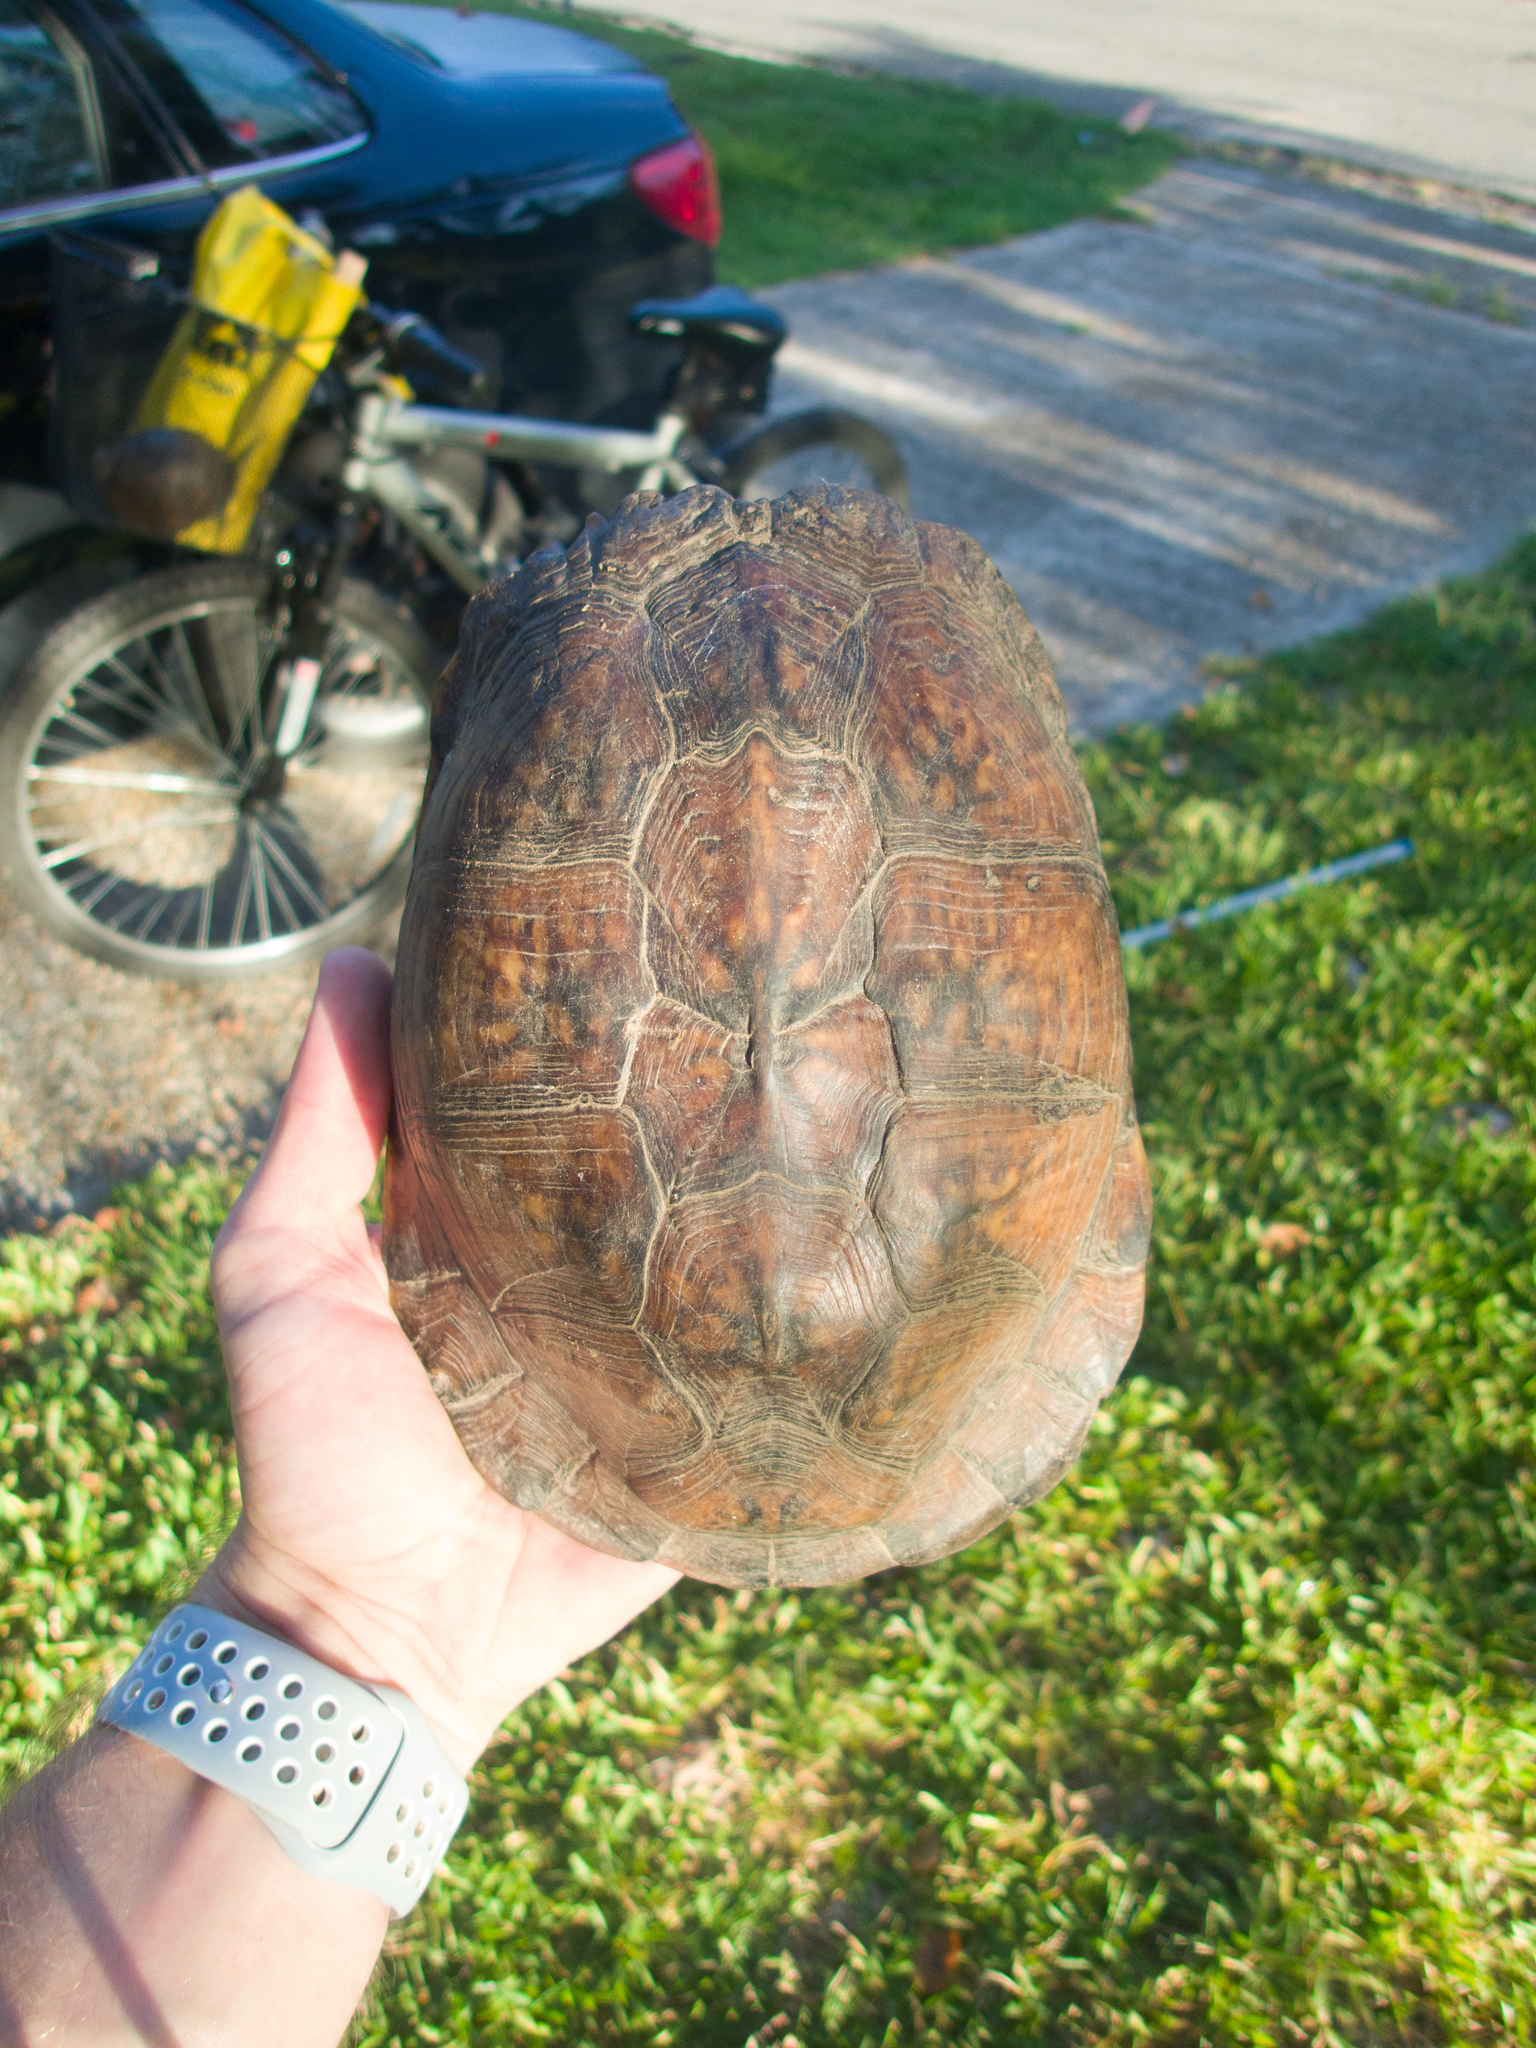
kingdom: Animalia
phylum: Chordata
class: Testudines
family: Emydidae
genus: Terrapene
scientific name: Terrapene carolina
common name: Common box turtle
